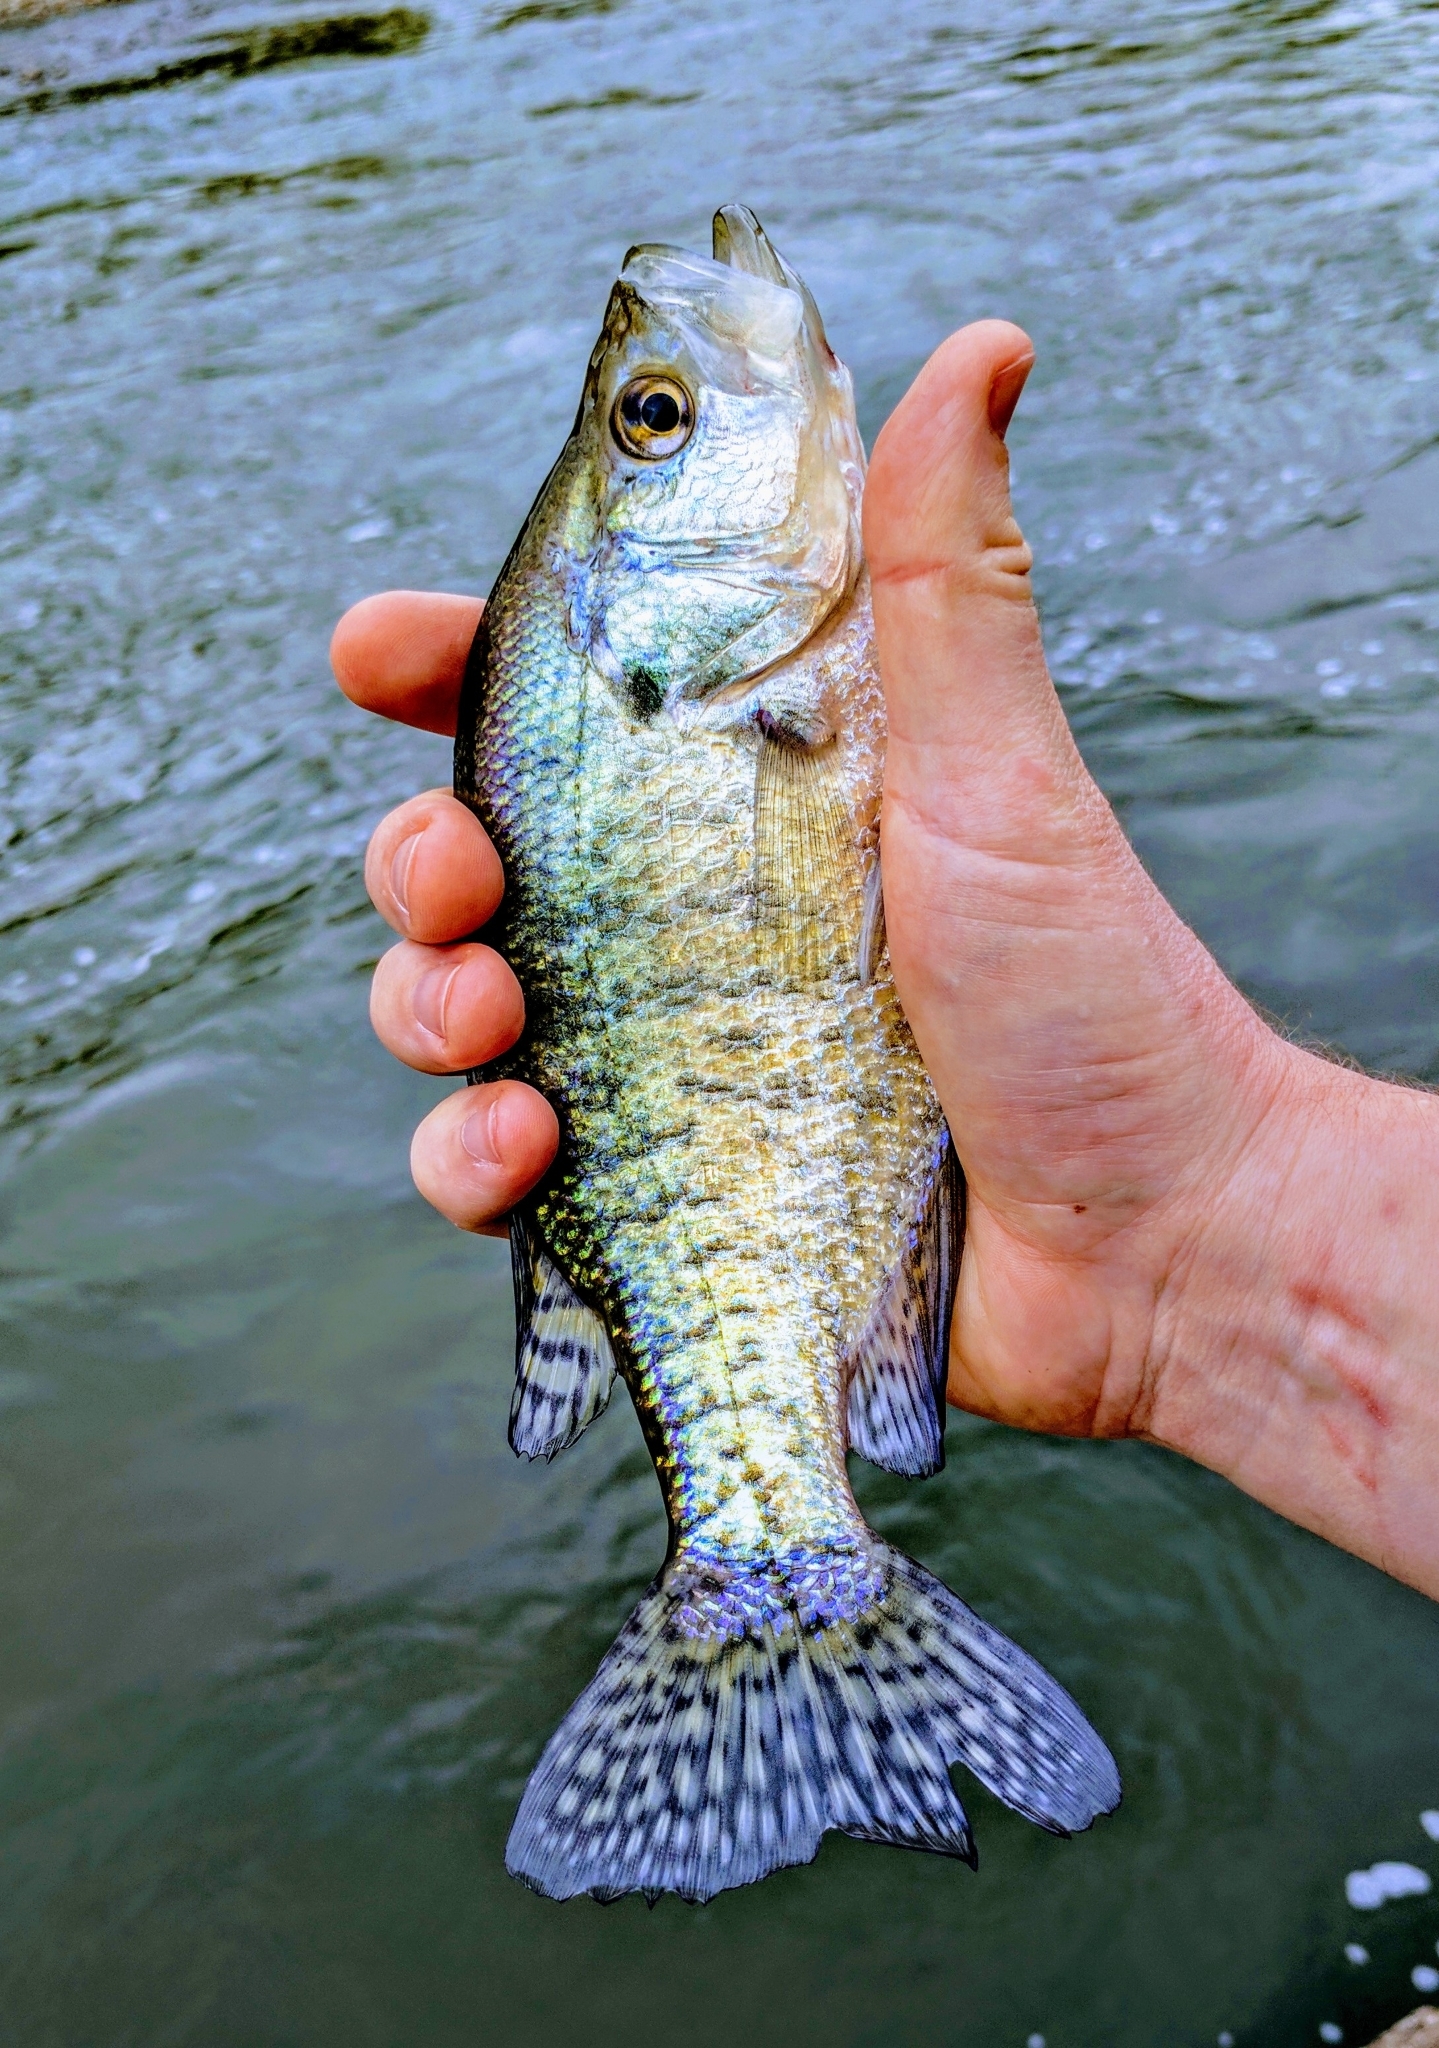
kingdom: Animalia
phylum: Chordata
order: Perciformes
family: Centrarchidae
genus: Pomoxis
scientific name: Pomoxis annularis
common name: White crappie
